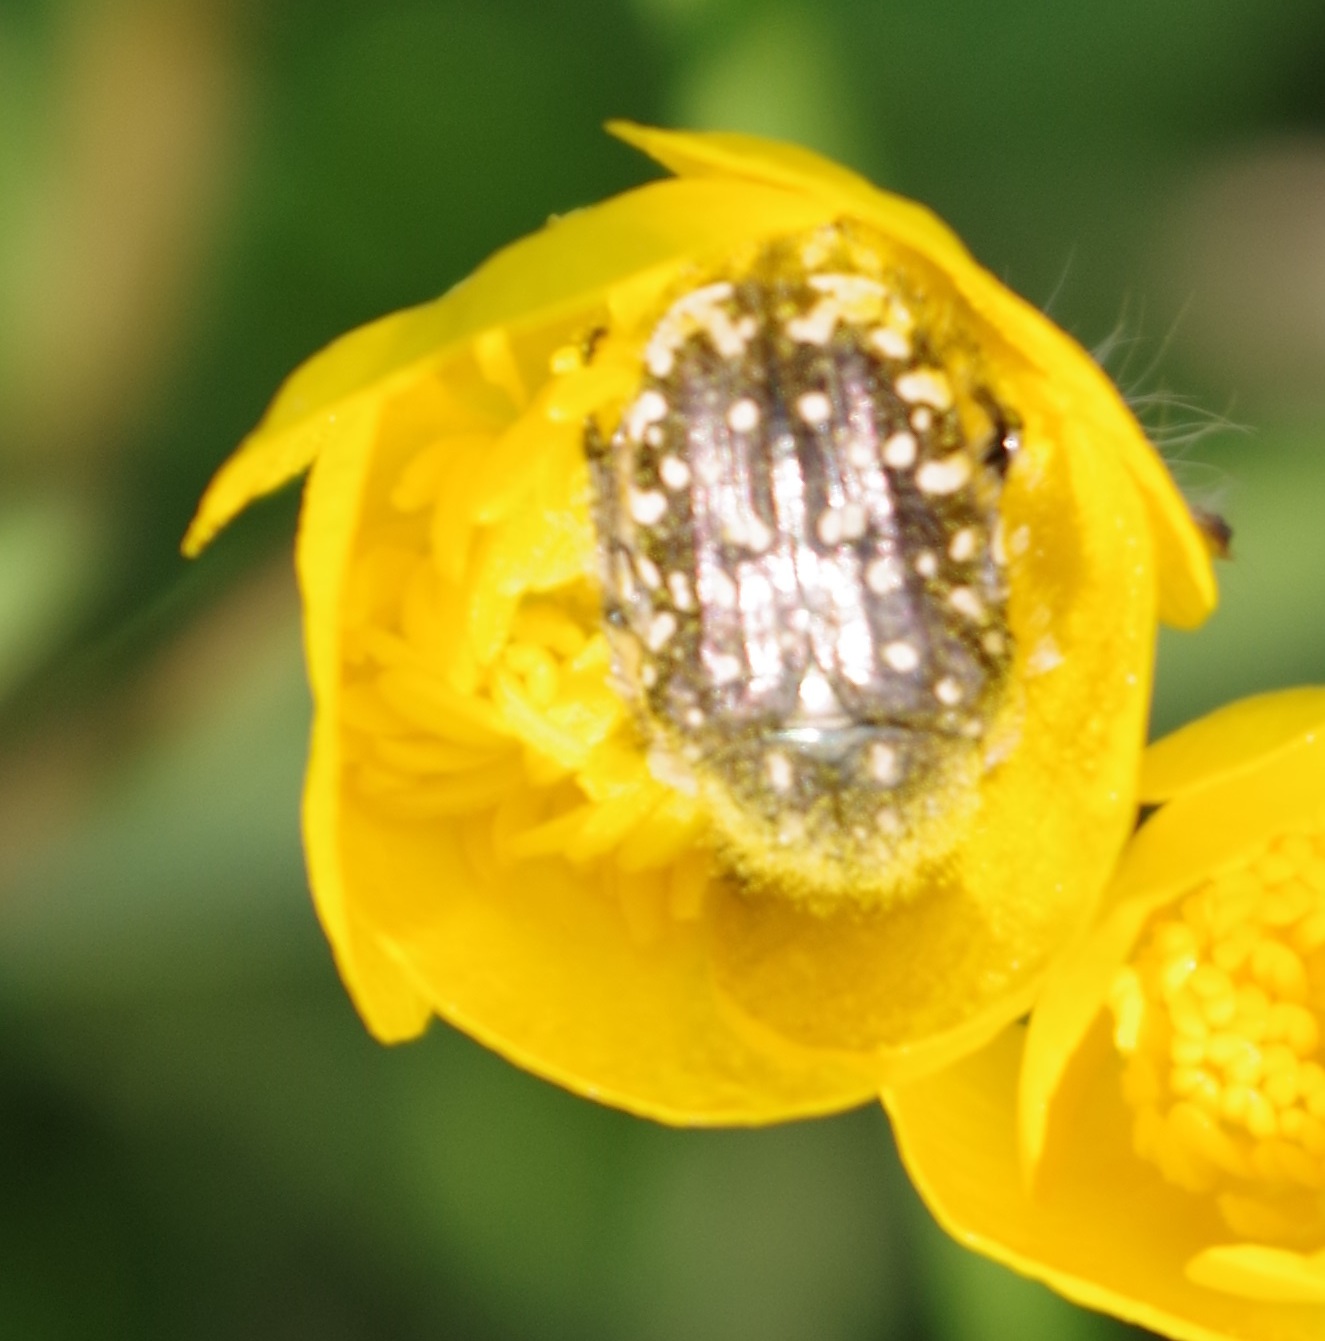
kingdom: Animalia
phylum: Arthropoda
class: Insecta
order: Coleoptera
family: Scarabaeidae
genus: Oxythyrea
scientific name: Oxythyrea funesta
